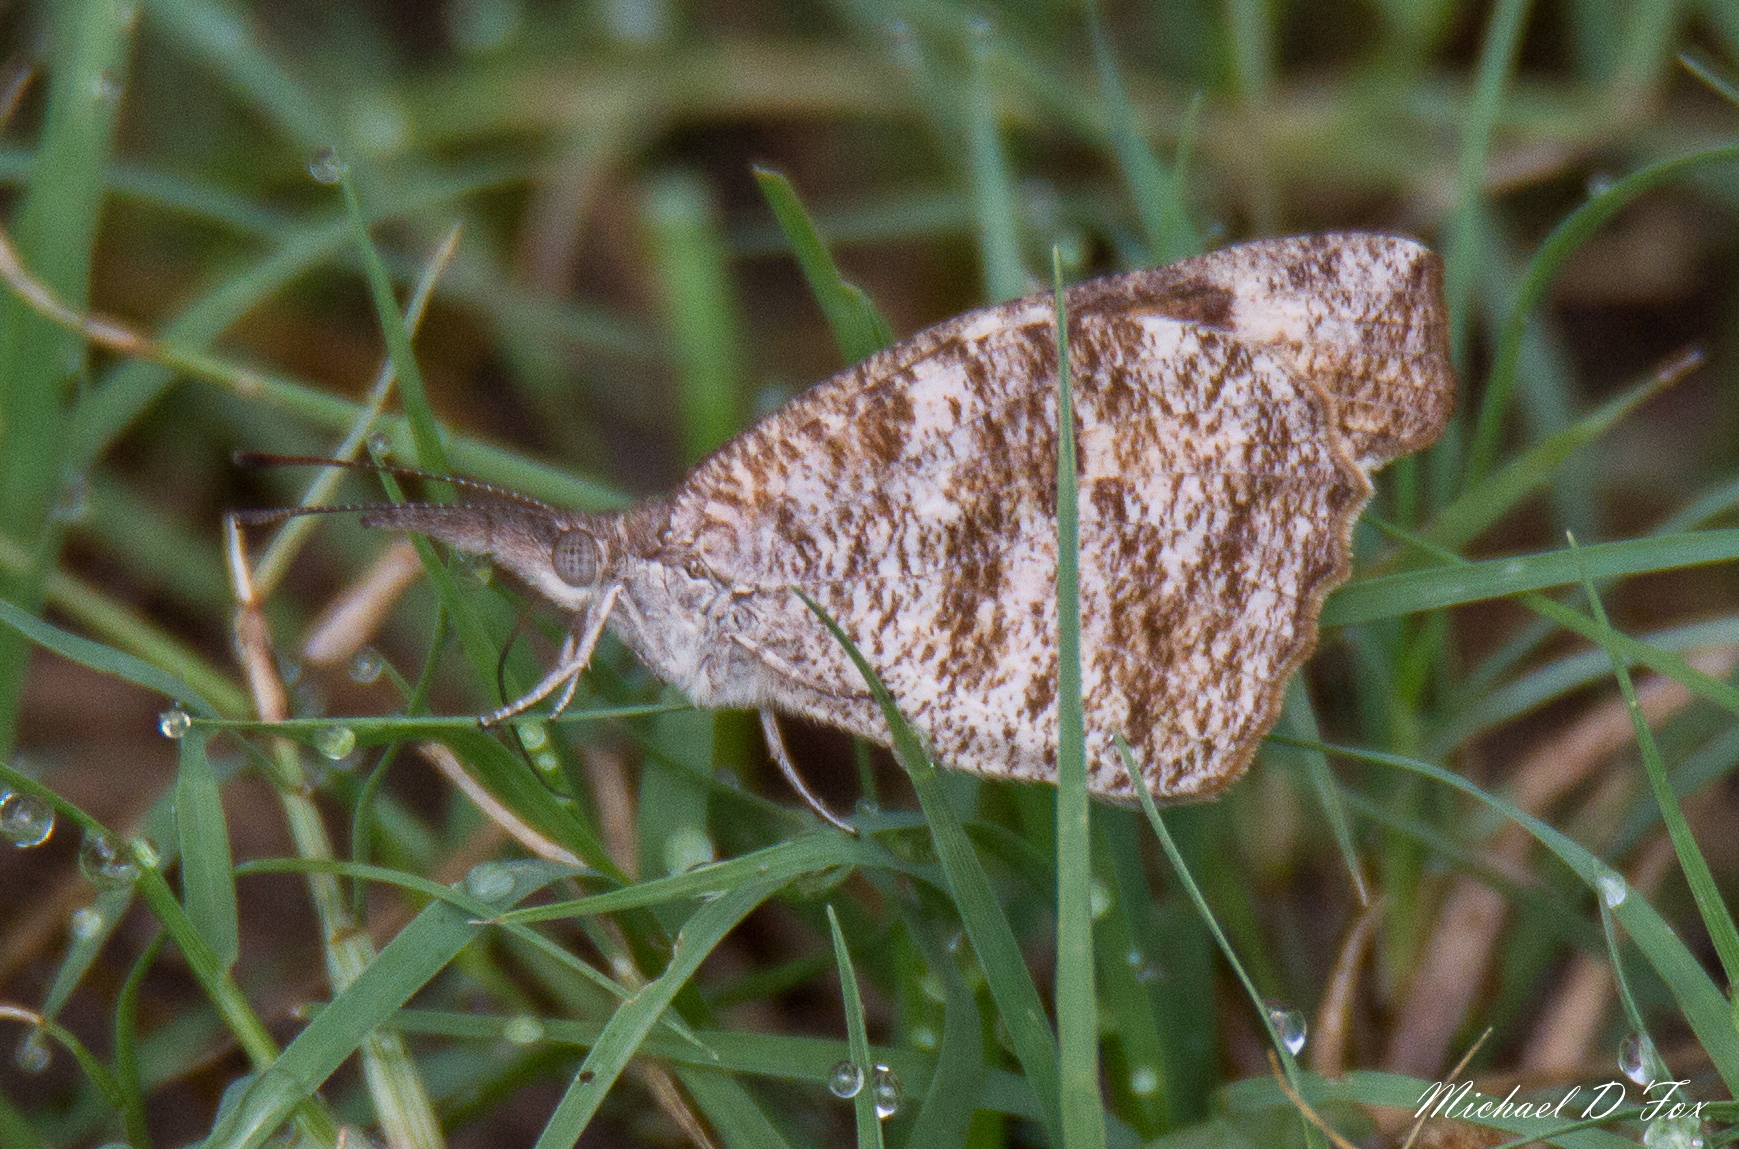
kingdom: Animalia
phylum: Arthropoda
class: Insecta
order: Lepidoptera
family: Nymphalidae
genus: Libytheana
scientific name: Libytheana carinenta
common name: American snout
